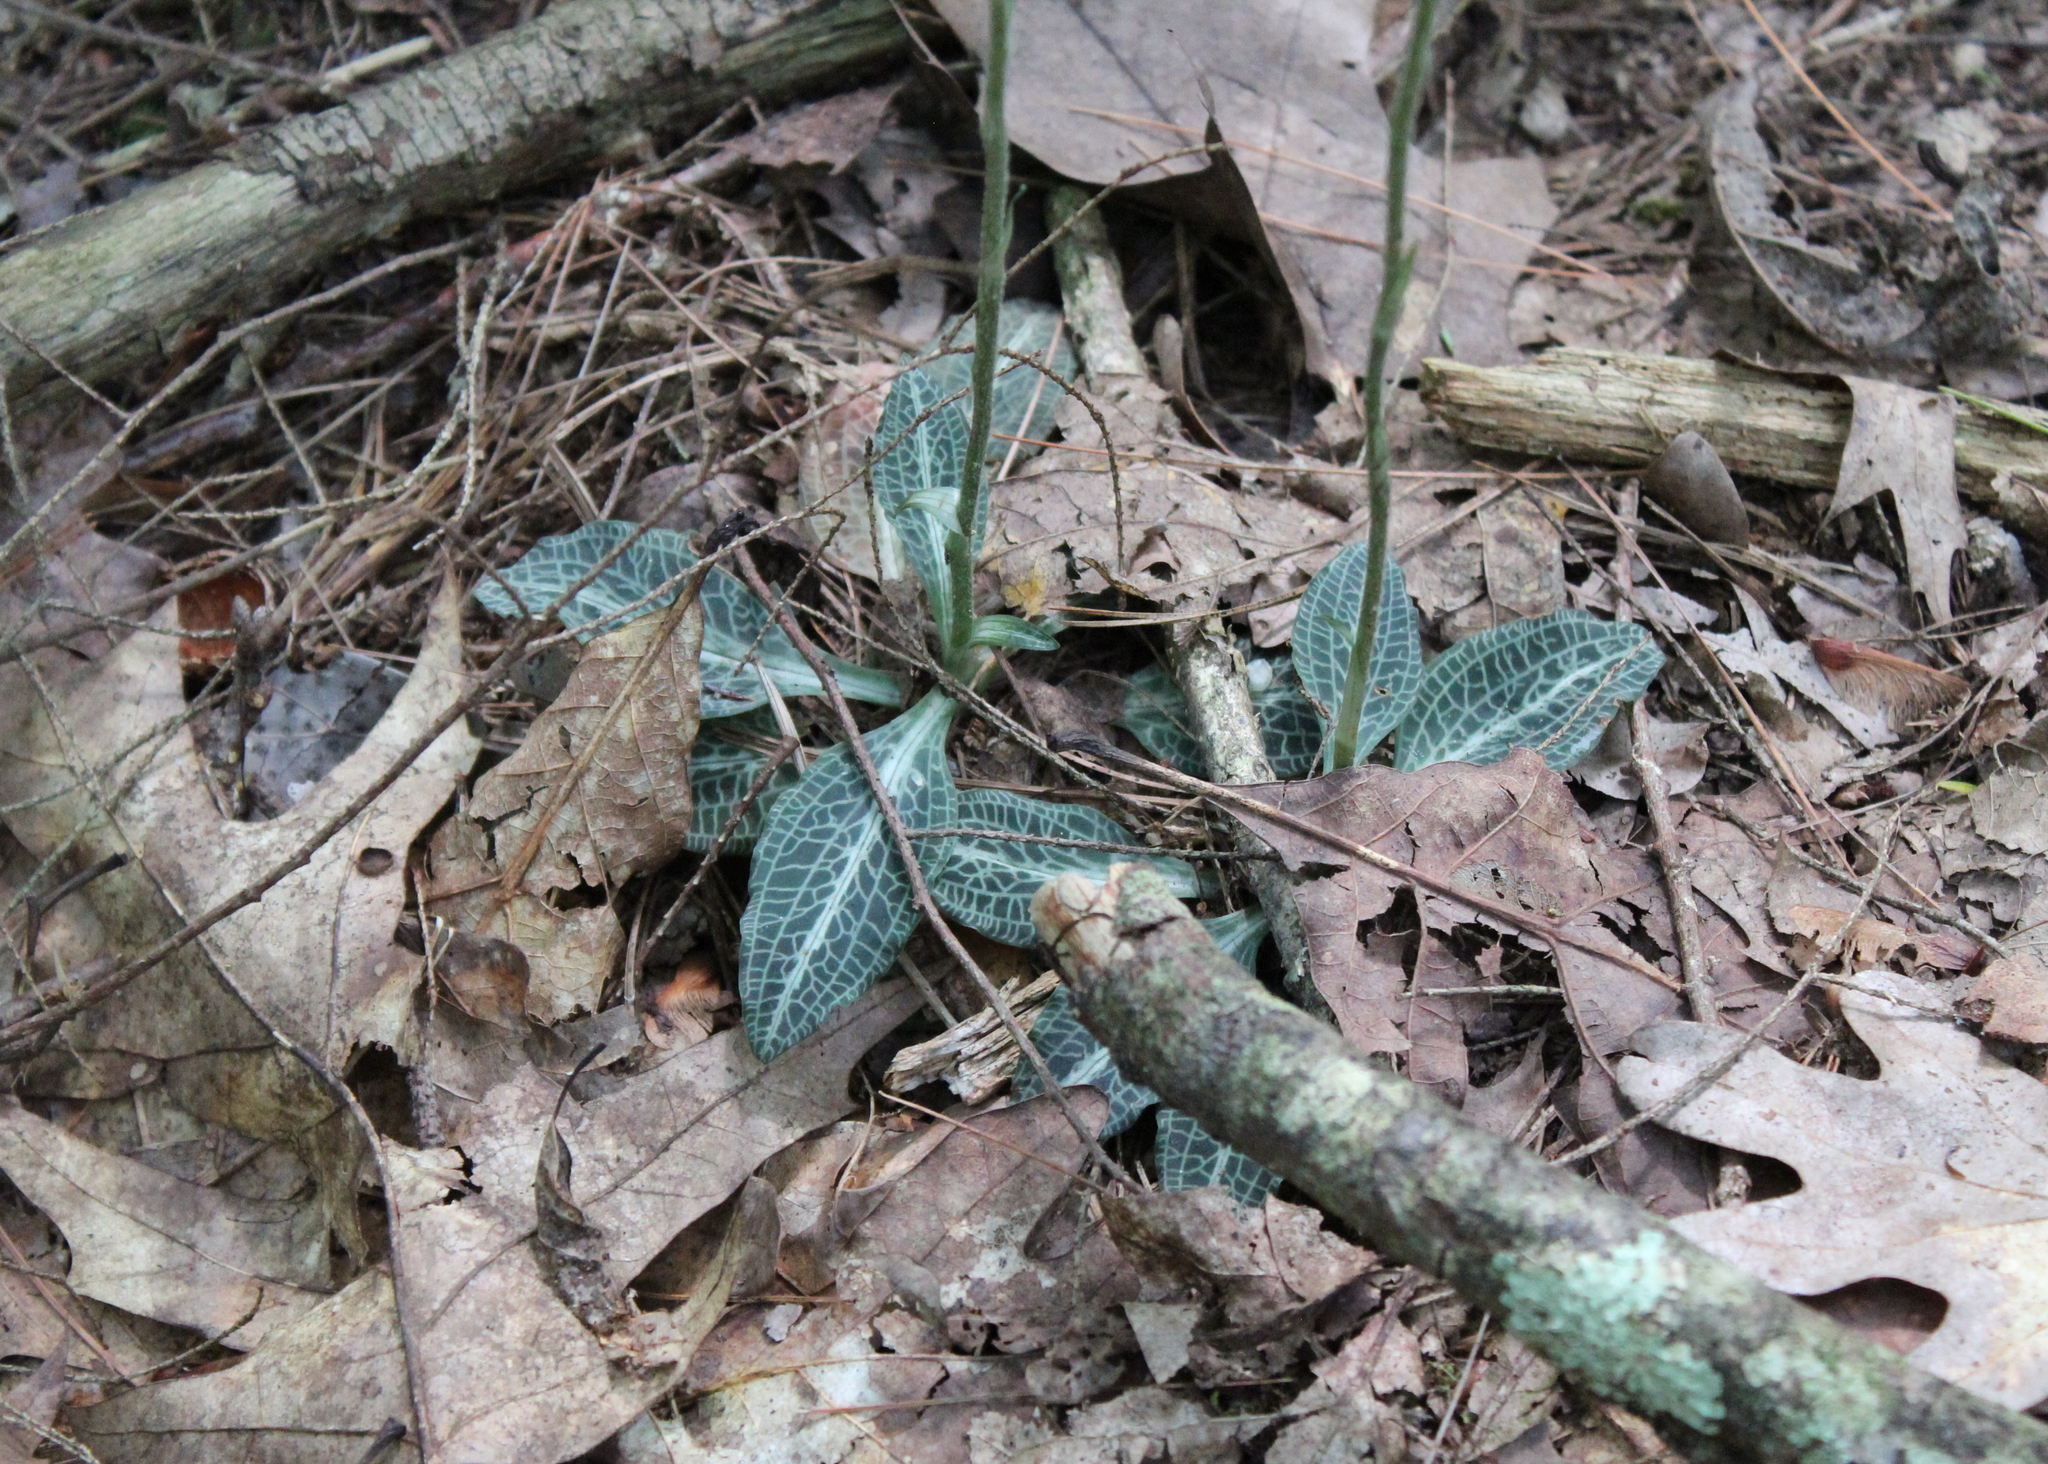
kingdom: Plantae
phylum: Tracheophyta
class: Liliopsida
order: Asparagales
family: Orchidaceae
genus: Goodyera
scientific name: Goodyera pubescens
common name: Downy rattlesnake-plantain
